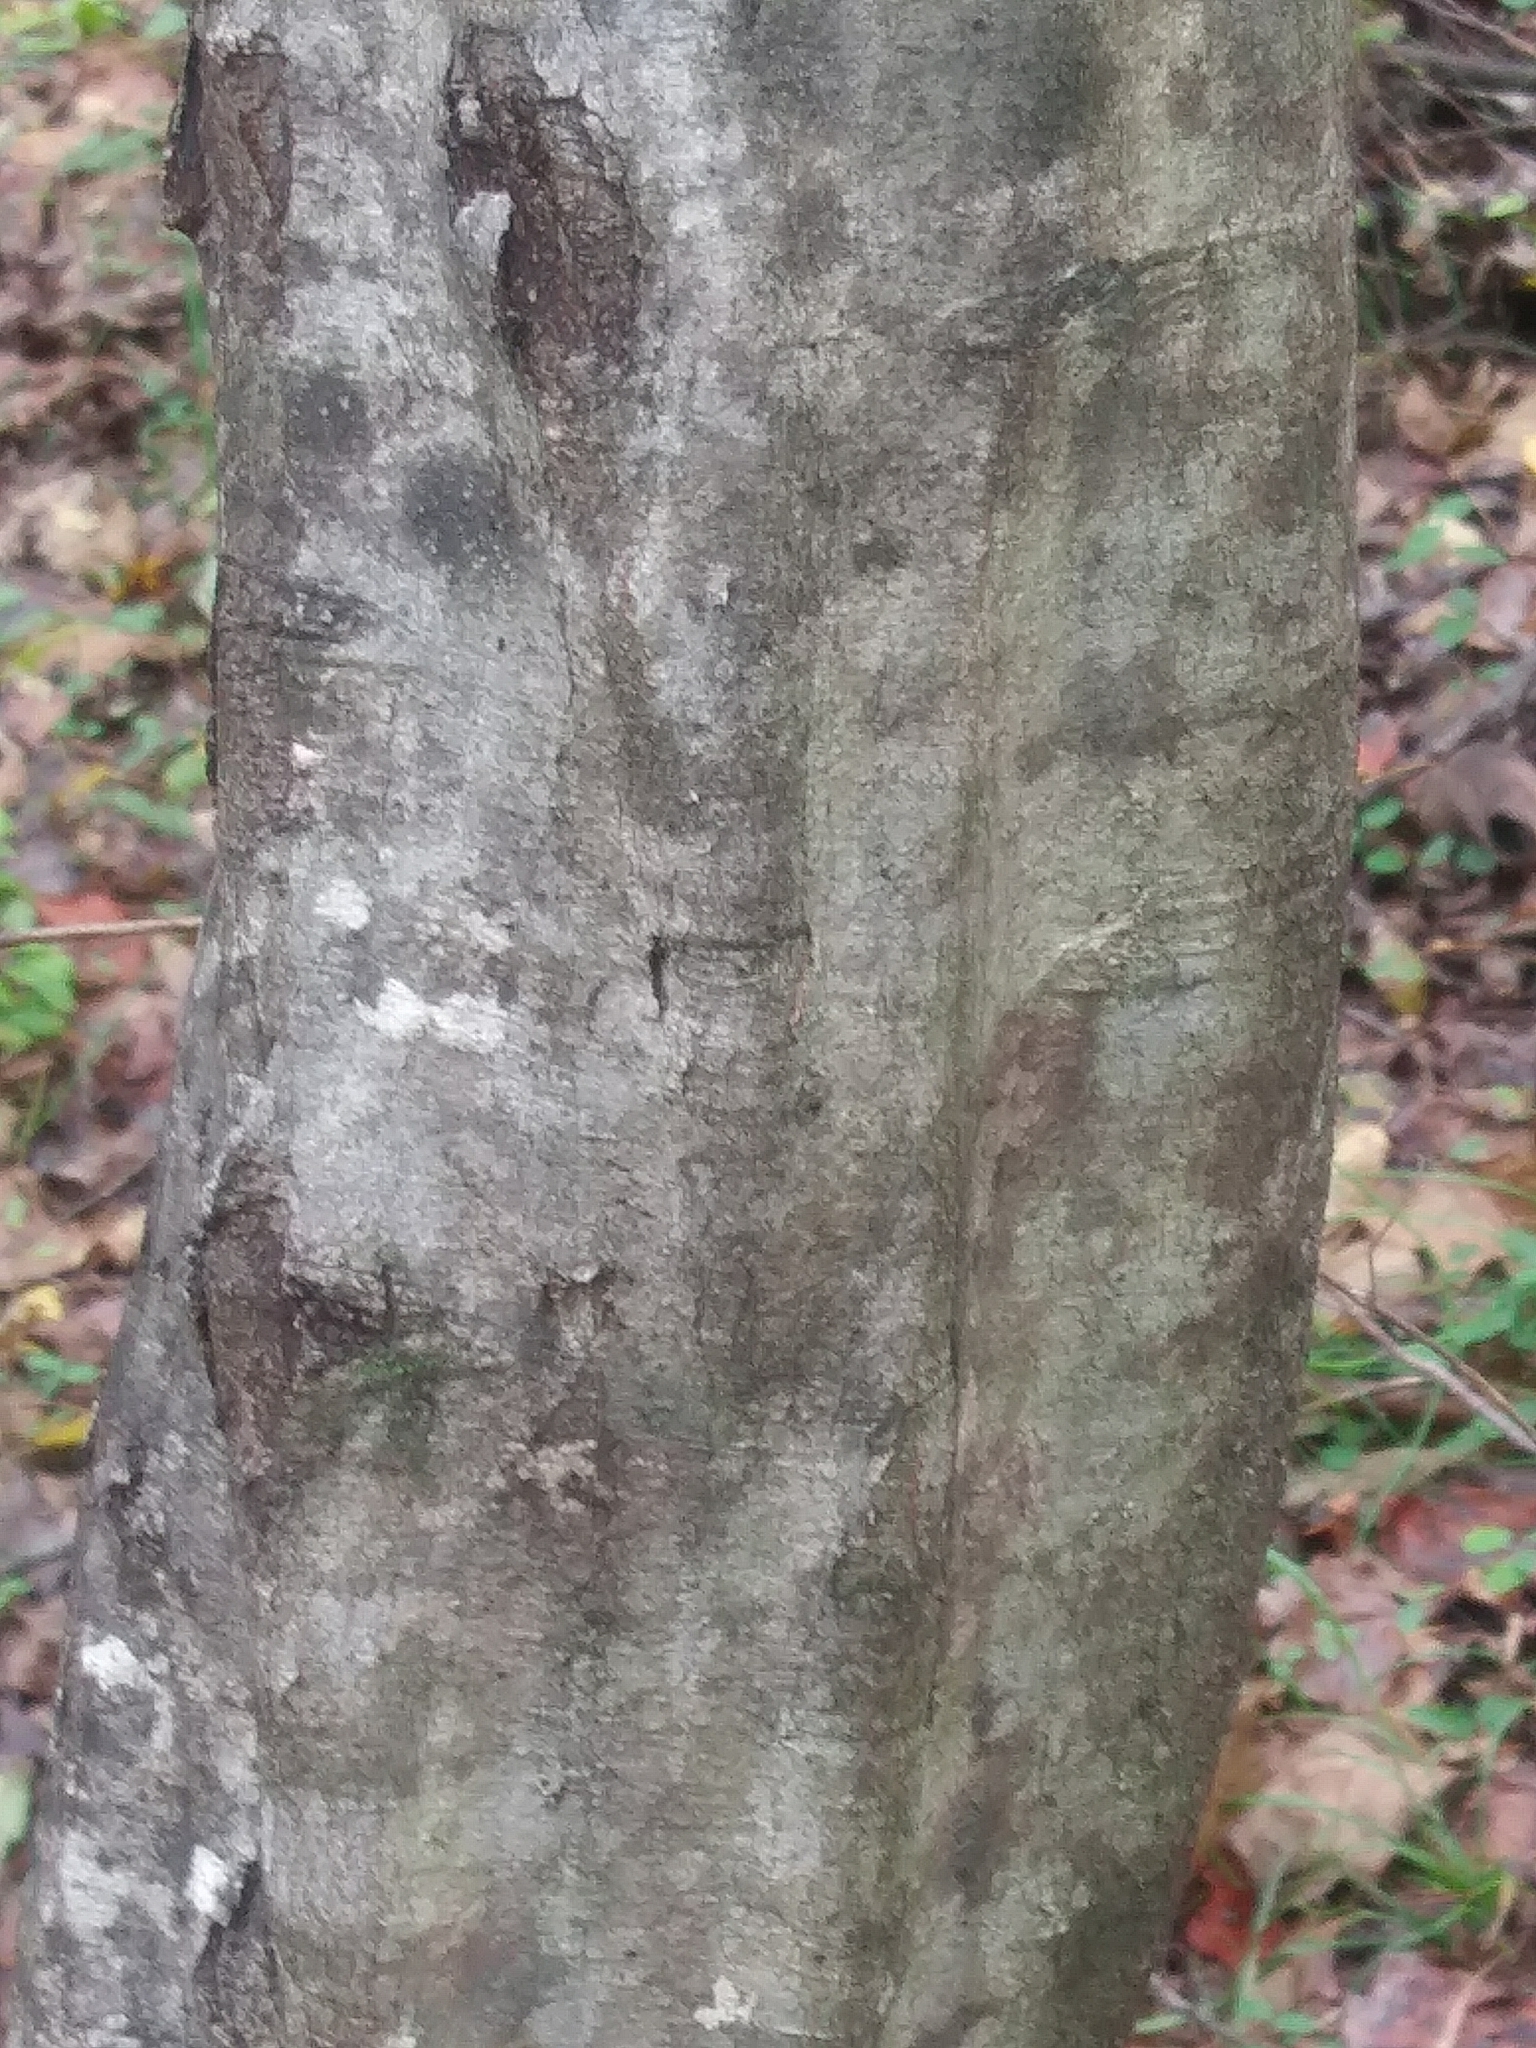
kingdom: Plantae
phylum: Tracheophyta
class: Magnoliopsida
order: Fagales
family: Betulaceae
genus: Carpinus
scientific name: Carpinus caroliniana
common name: American hornbeam
